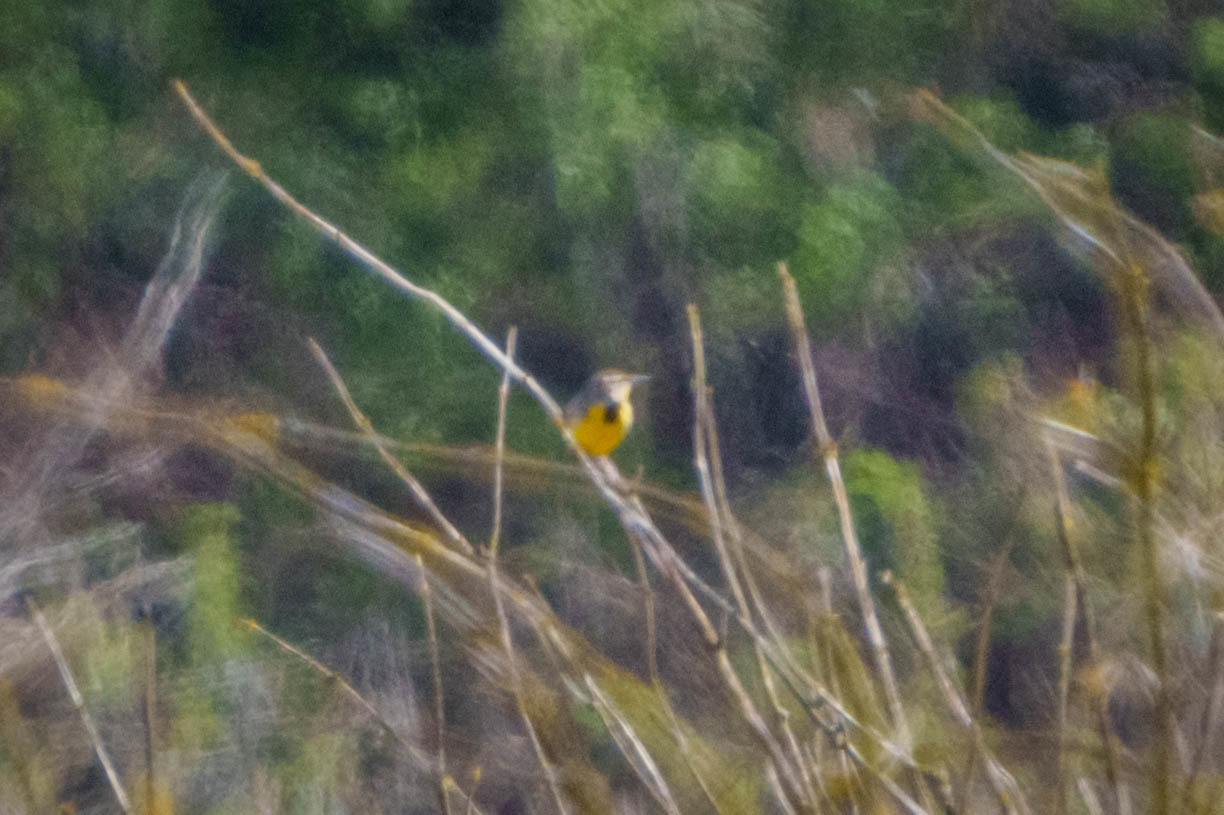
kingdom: Animalia
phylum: Chordata
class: Aves
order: Passeriformes
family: Icteridae
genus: Sturnella
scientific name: Sturnella neglecta
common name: Western meadowlark
